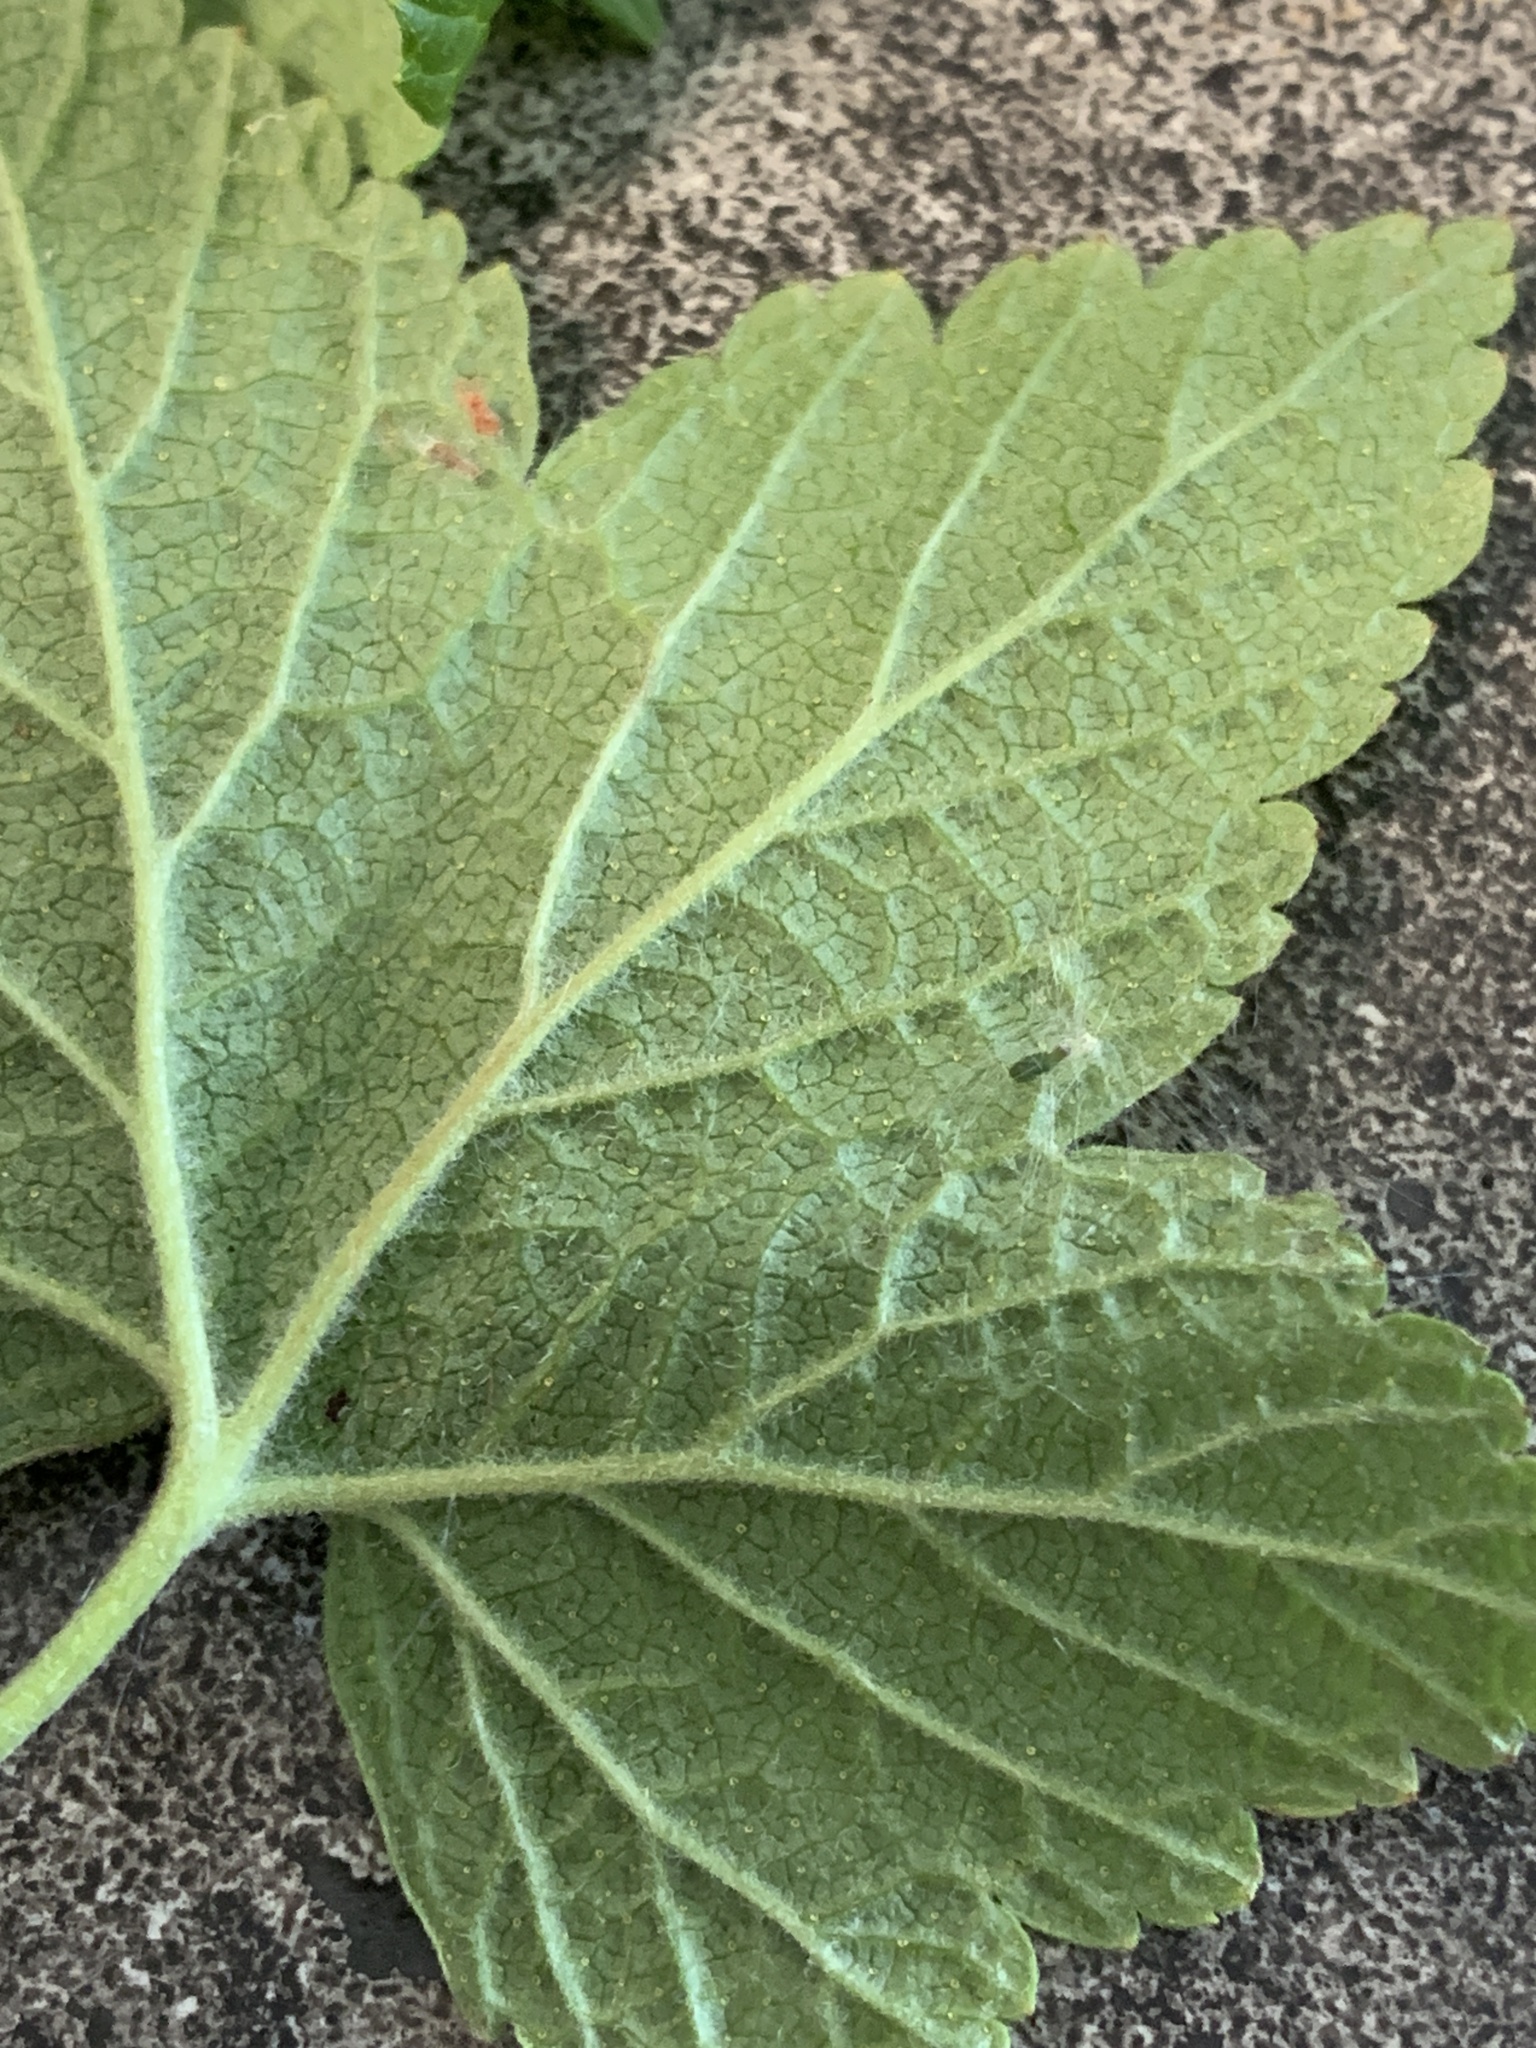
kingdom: Plantae
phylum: Tracheophyta
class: Magnoliopsida
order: Saxifragales
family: Grossulariaceae
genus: Ribes
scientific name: Ribes hudsonianum
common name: Northern black currant
